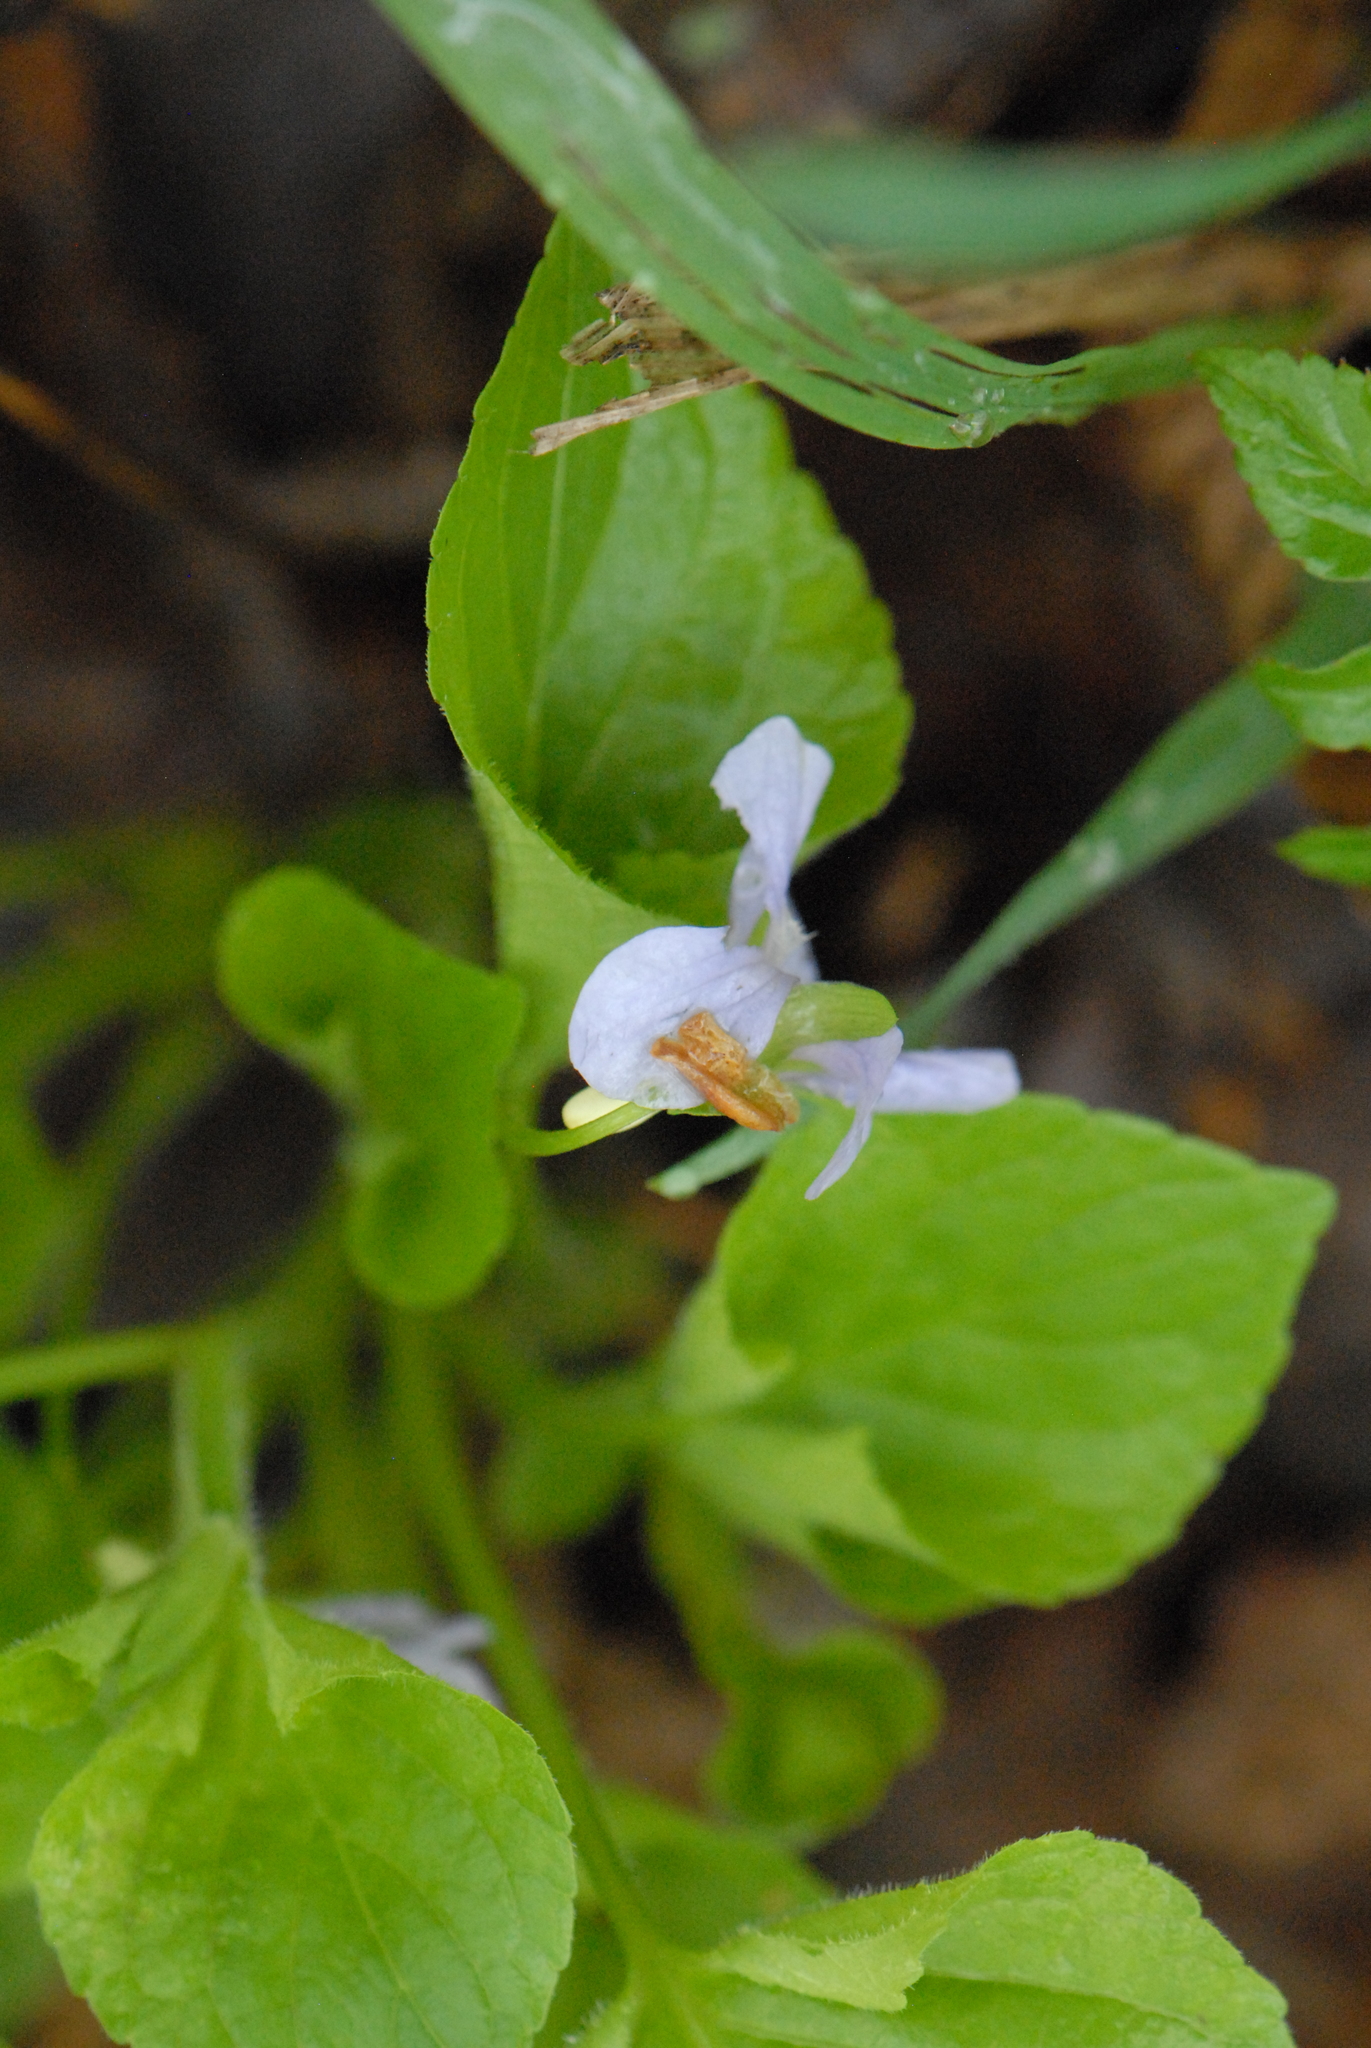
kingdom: Plantae
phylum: Tracheophyta
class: Magnoliopsida
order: Malpighiales
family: Violaceae
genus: Viola
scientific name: Viola mirabilis
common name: Wonder violet
